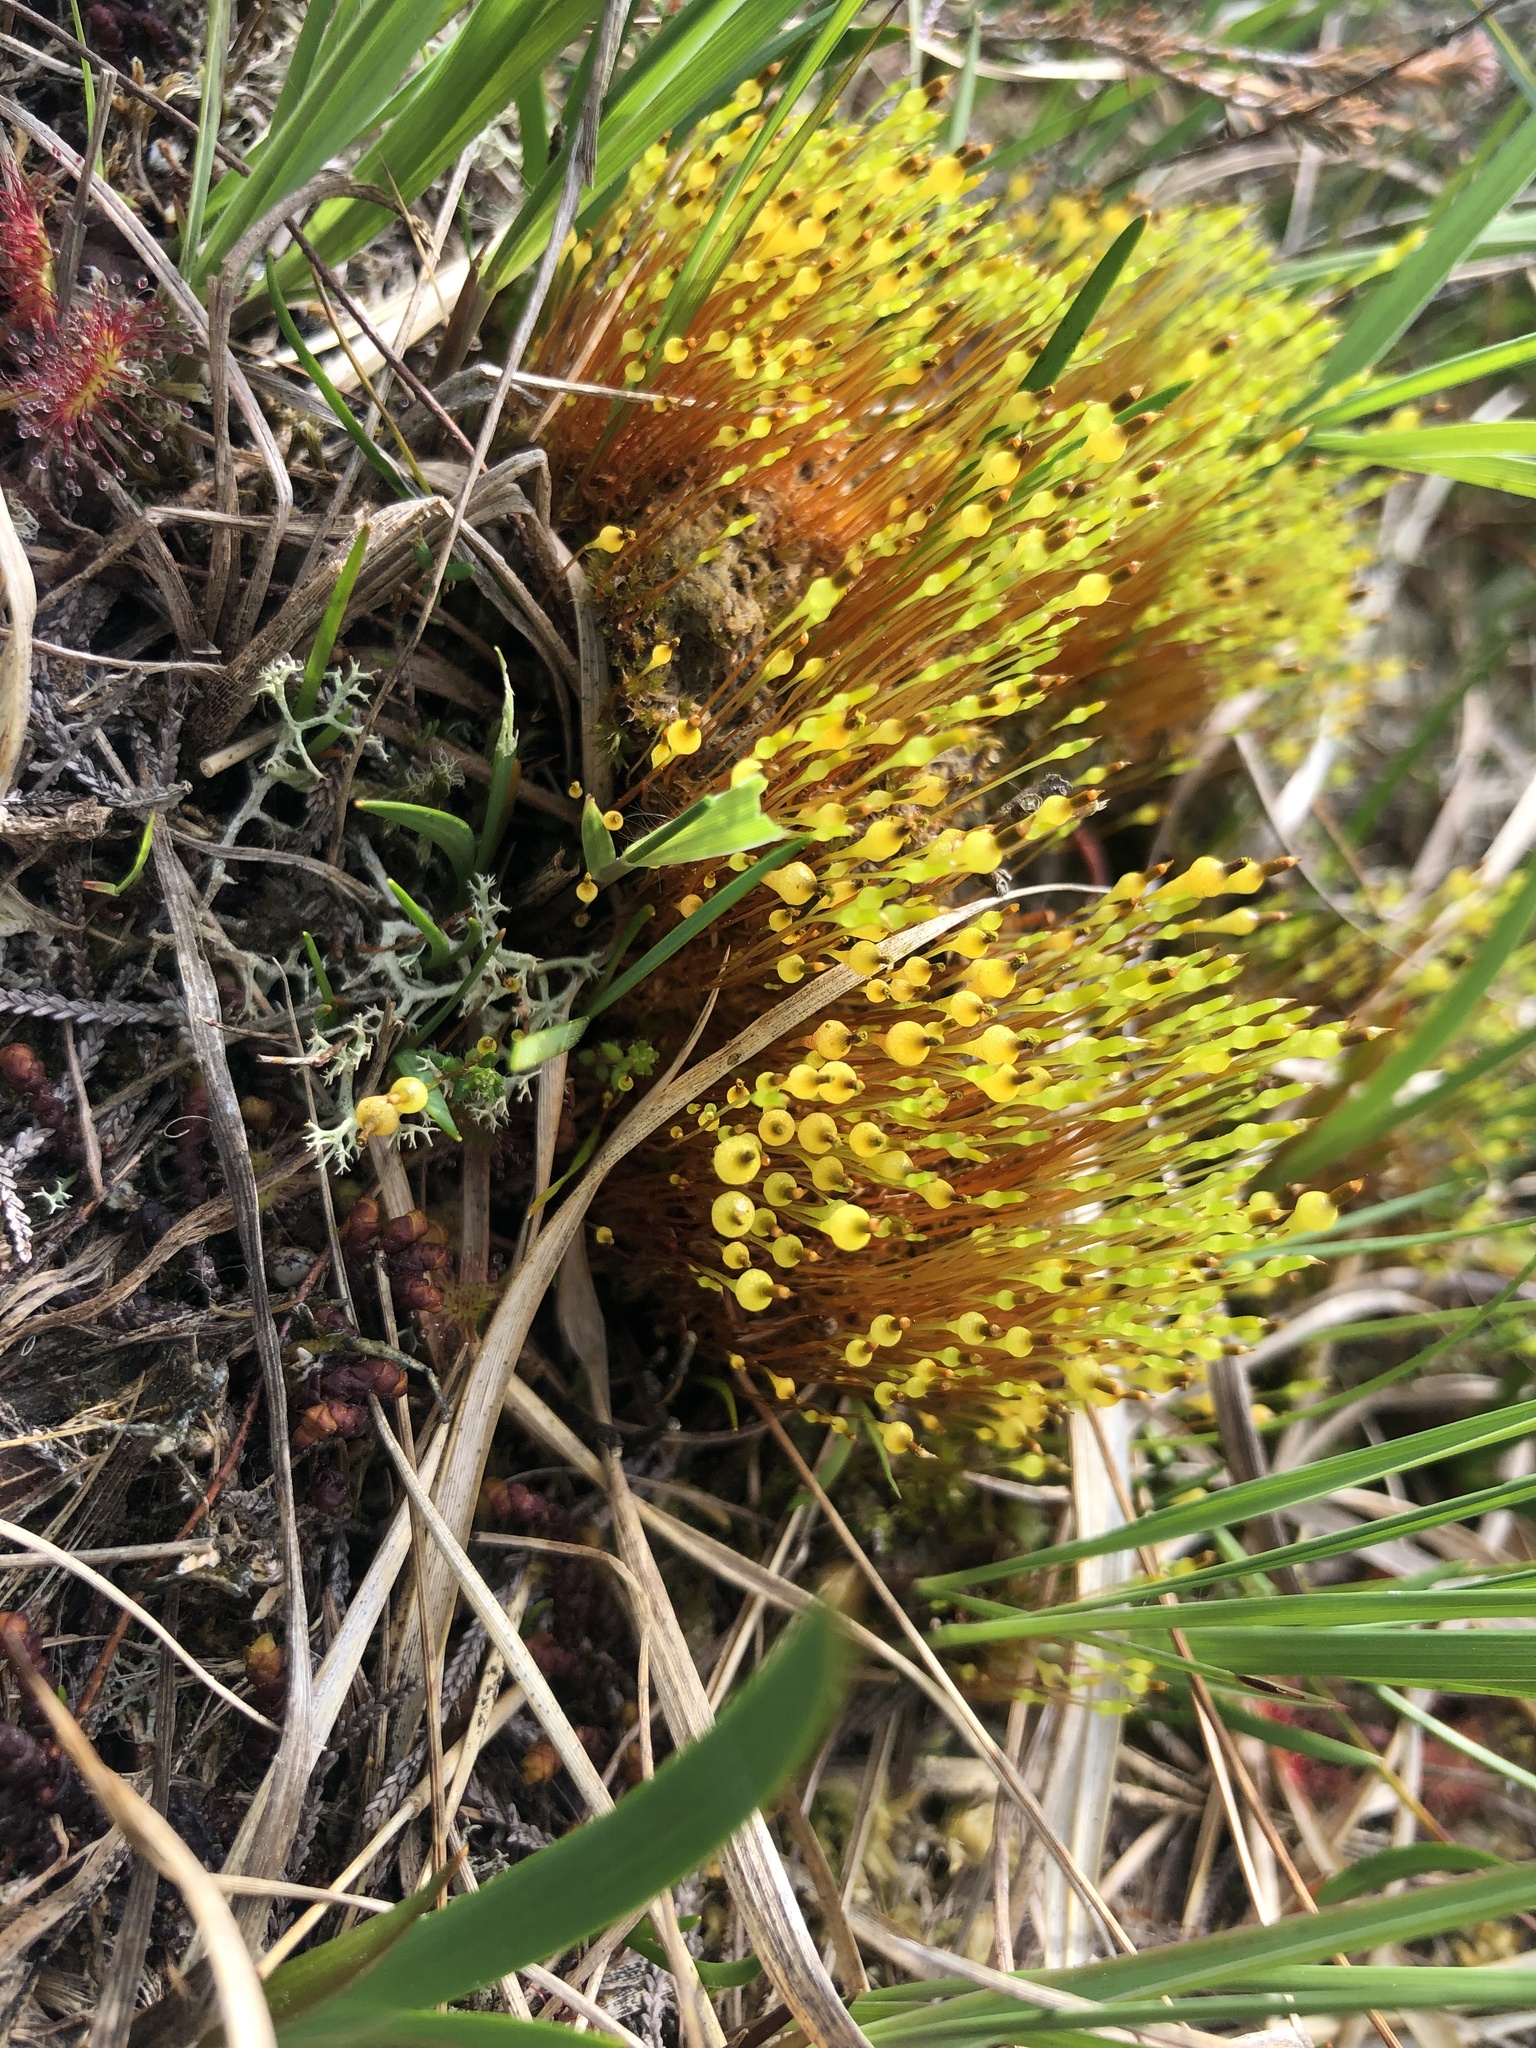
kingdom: Plantae
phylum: Bryophyta
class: Bryopsida
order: Splachnales
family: Splachnaceae
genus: Splachnum
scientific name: Splachnum ampullaceum
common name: Cruet dung moss
